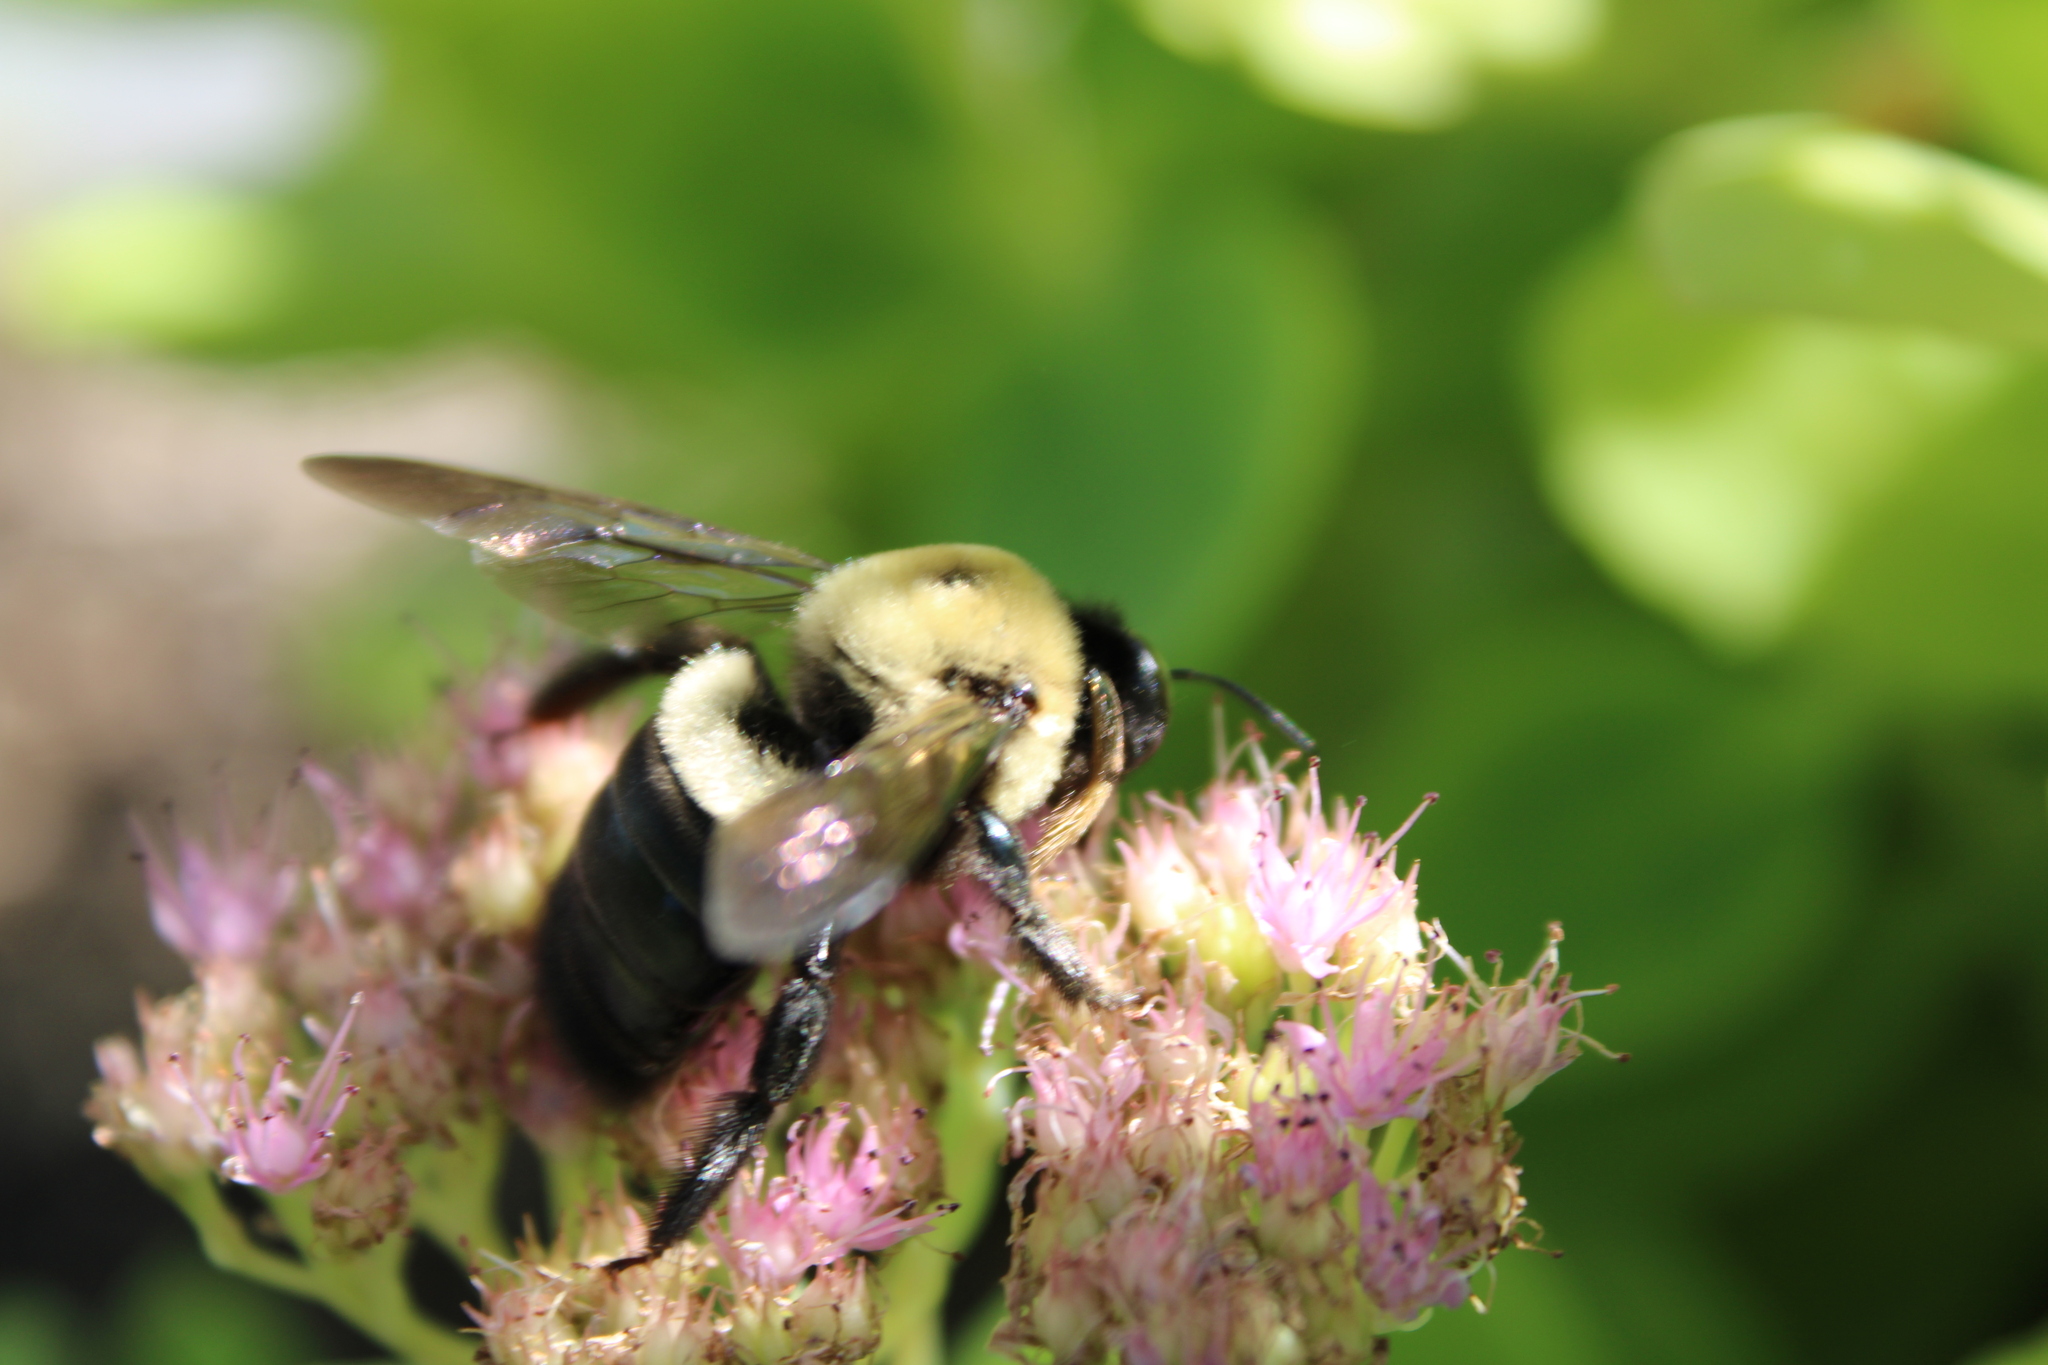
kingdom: Animalia
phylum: Arthropoda
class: Insecta
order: Hymenoptera
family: Apidae
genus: Xylocopa
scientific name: Xylocopa virginica
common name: Carpenter bee
